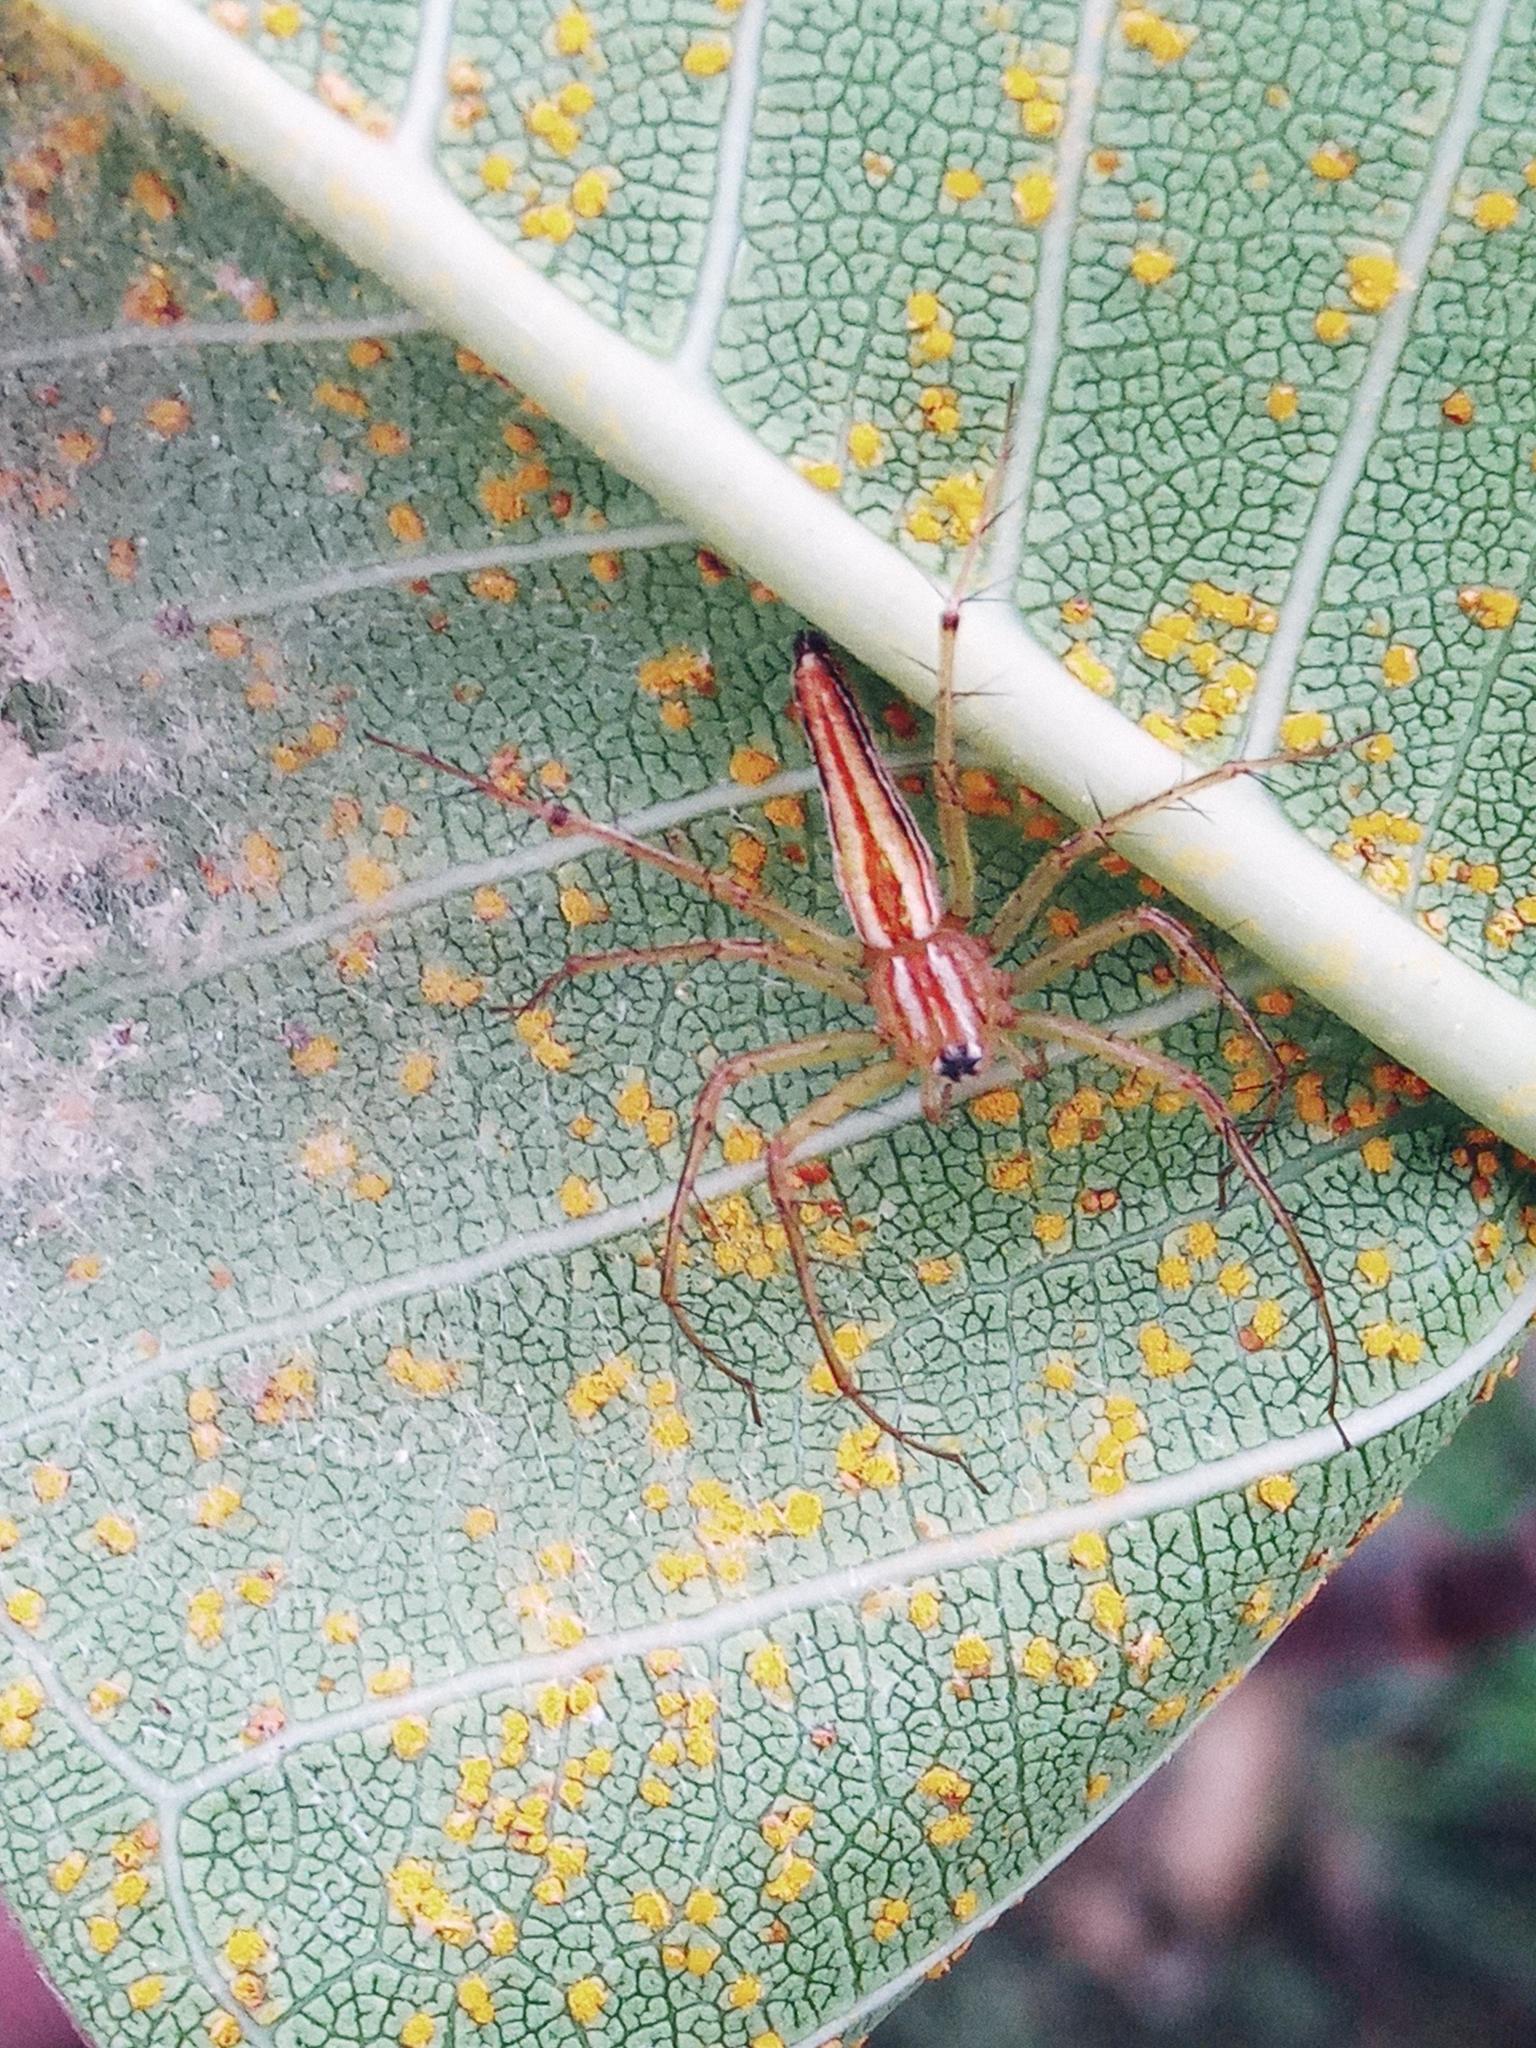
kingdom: Animalia
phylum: Arthropoda
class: Arachnida
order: Araneae
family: Oxyopidae
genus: Oxyopes
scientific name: Oxyopes macilentus
